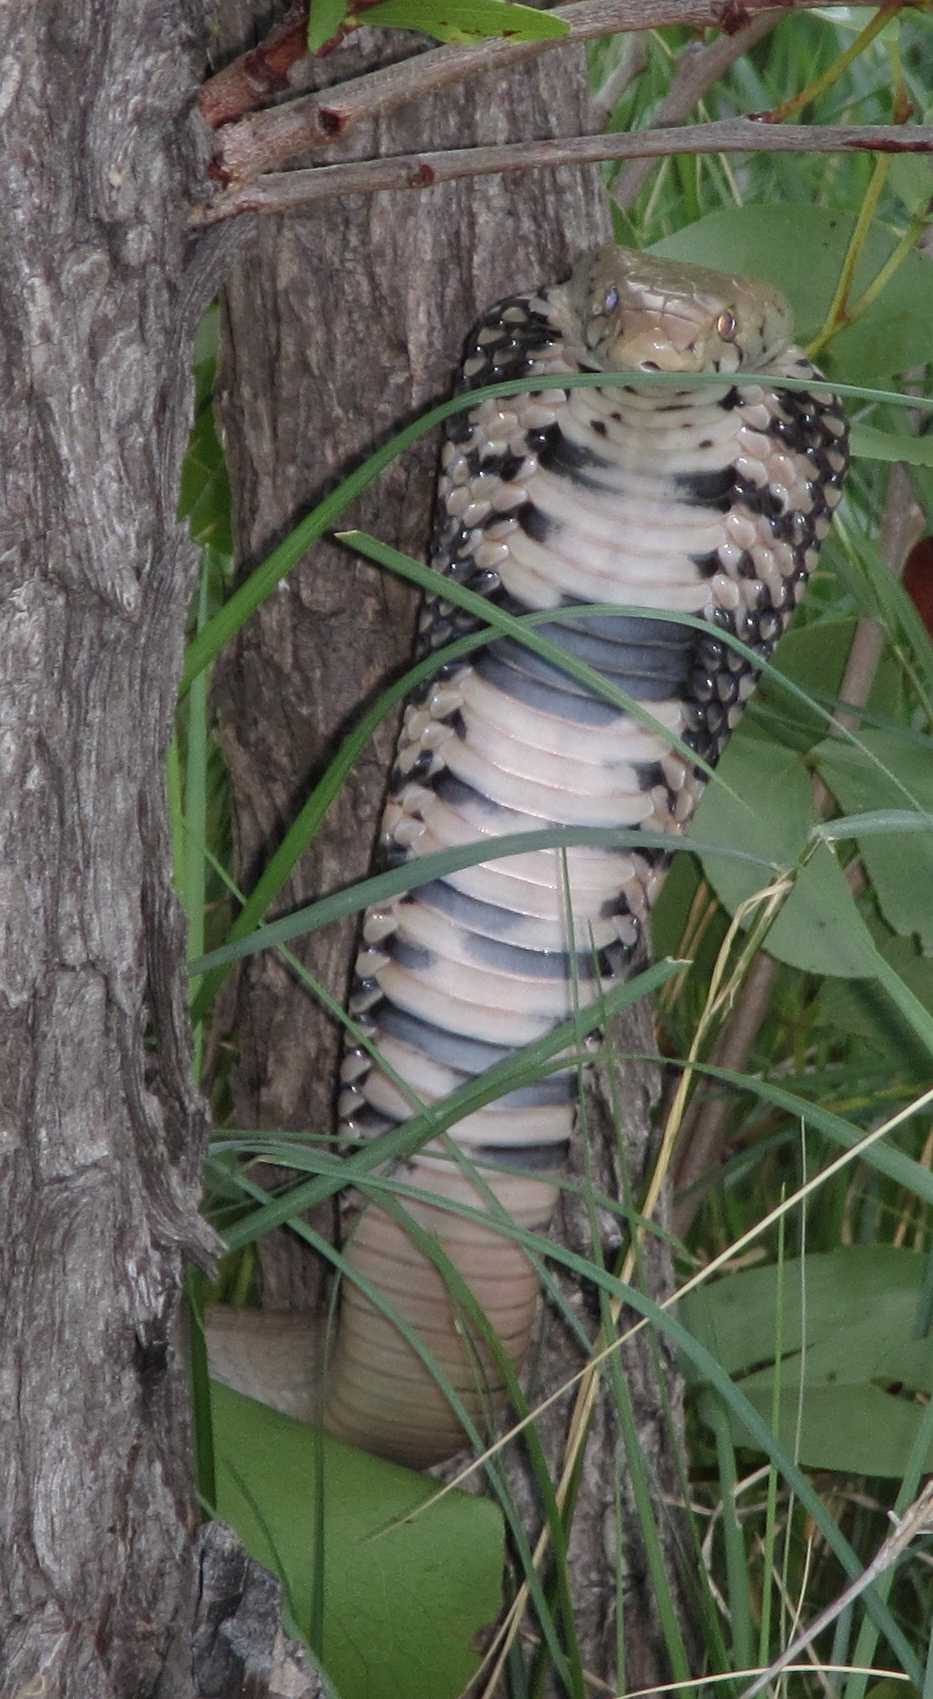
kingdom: Animalia
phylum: Chordata
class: Squamata
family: Elapidae
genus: Naja
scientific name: Naja mossambica
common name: Mozambique spitting cobra
